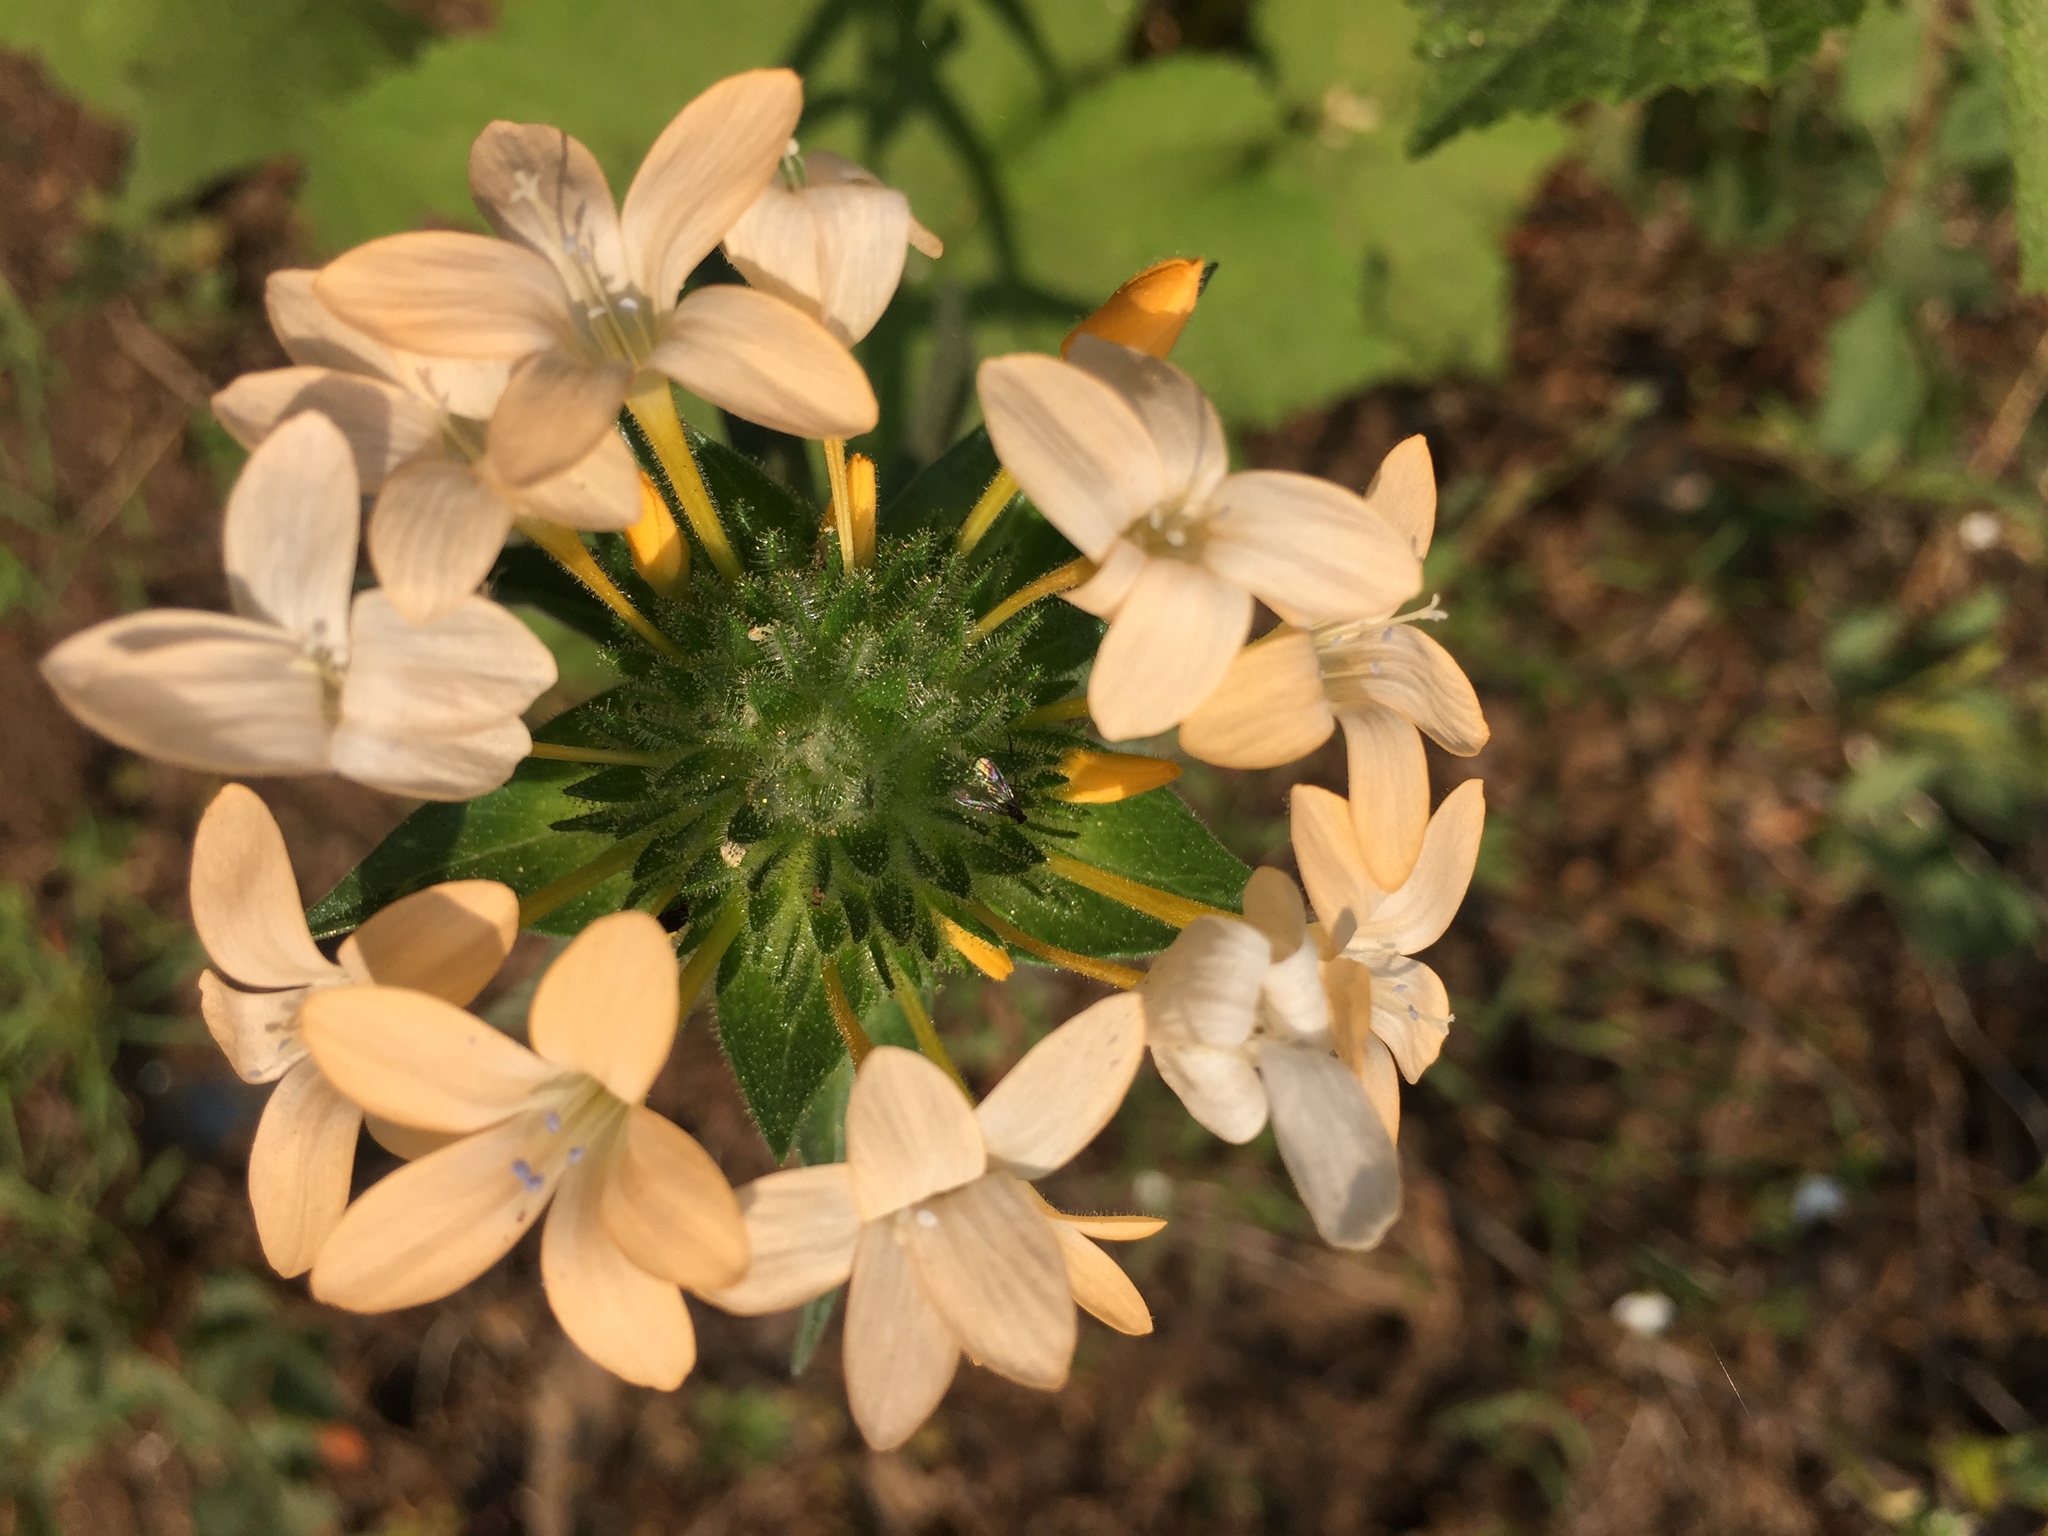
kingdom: Plantae
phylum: Tracheophyta
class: Magnoliopsida
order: Ericales
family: Polemoniaceae
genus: Collomia
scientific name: Collomia grandiflora
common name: California strawflower
